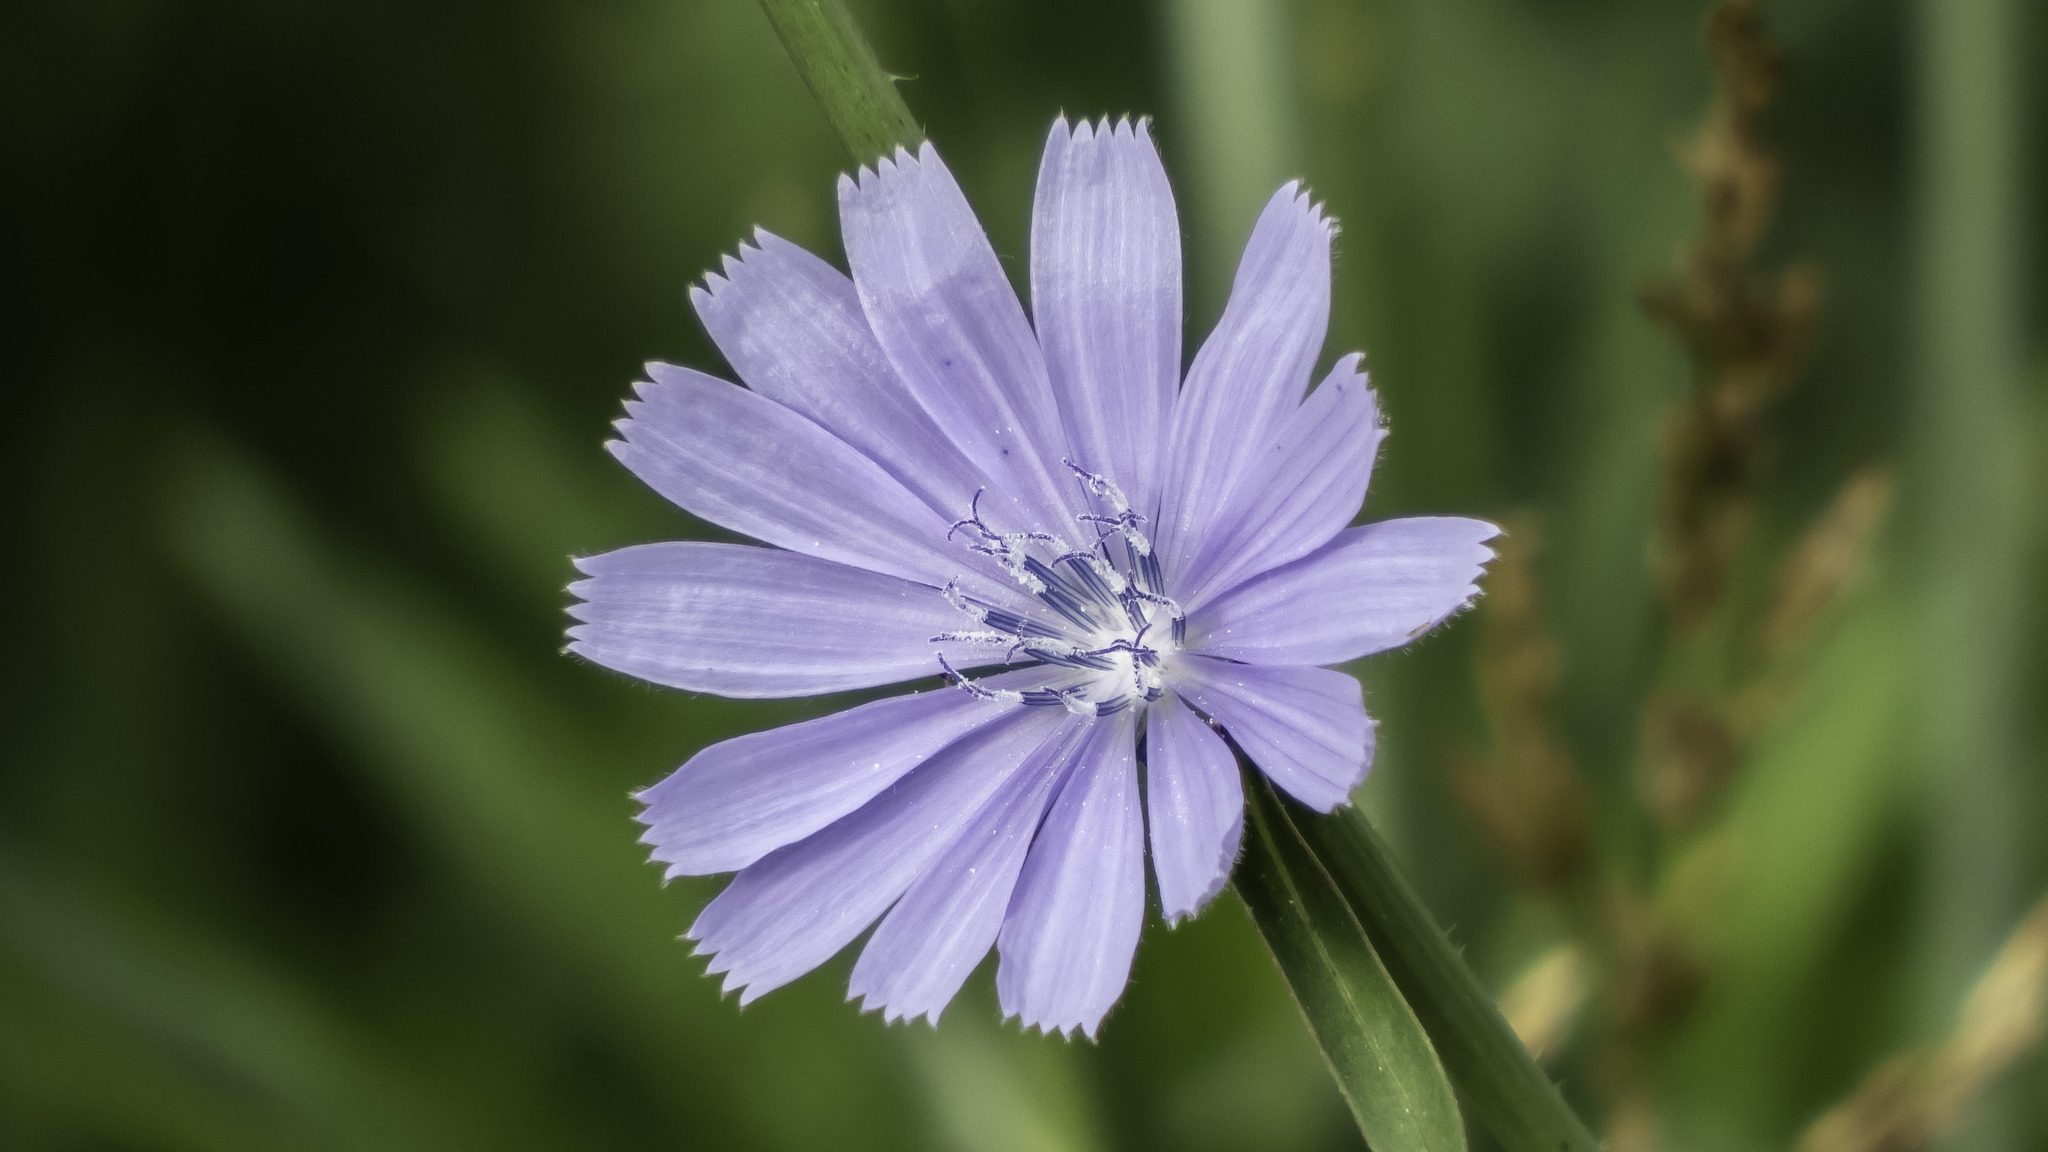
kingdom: Plantae
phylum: Tracheophyta
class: Magnoliopsida
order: Asterales
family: Asteraceae
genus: Cichorium
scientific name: Cichorium intybus
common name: Chicory
